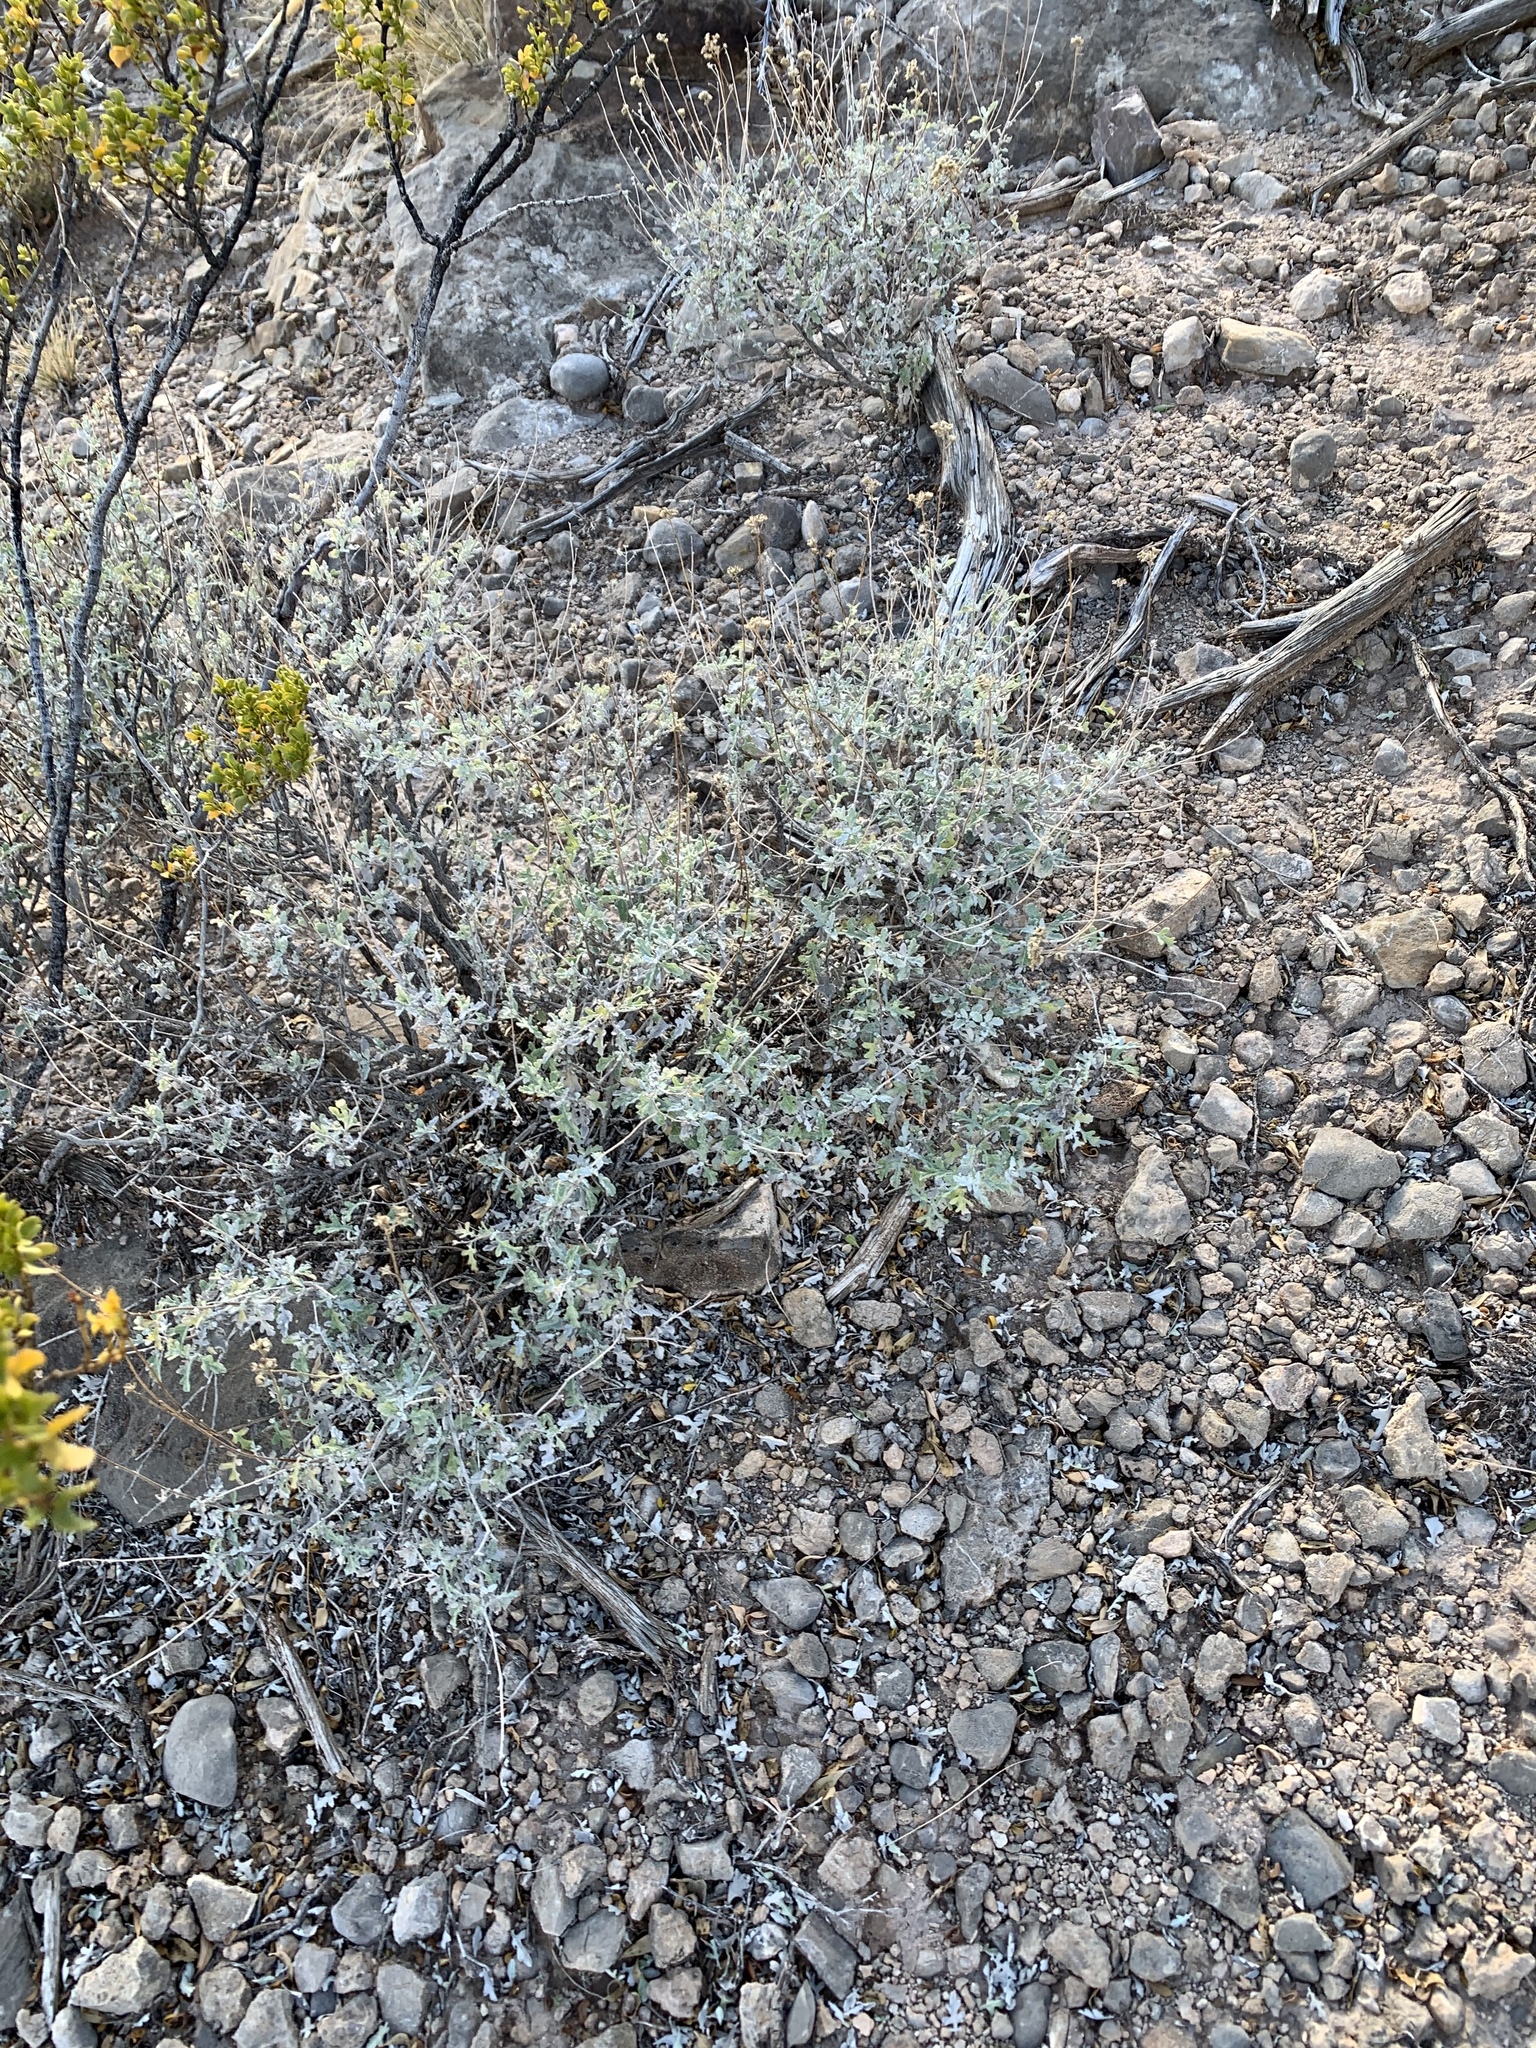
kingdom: Plantae
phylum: Tracheophyta
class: Magnoliopsida
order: Asterales
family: Asteraceae
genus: Parthenium
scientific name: Parthenium incanum
